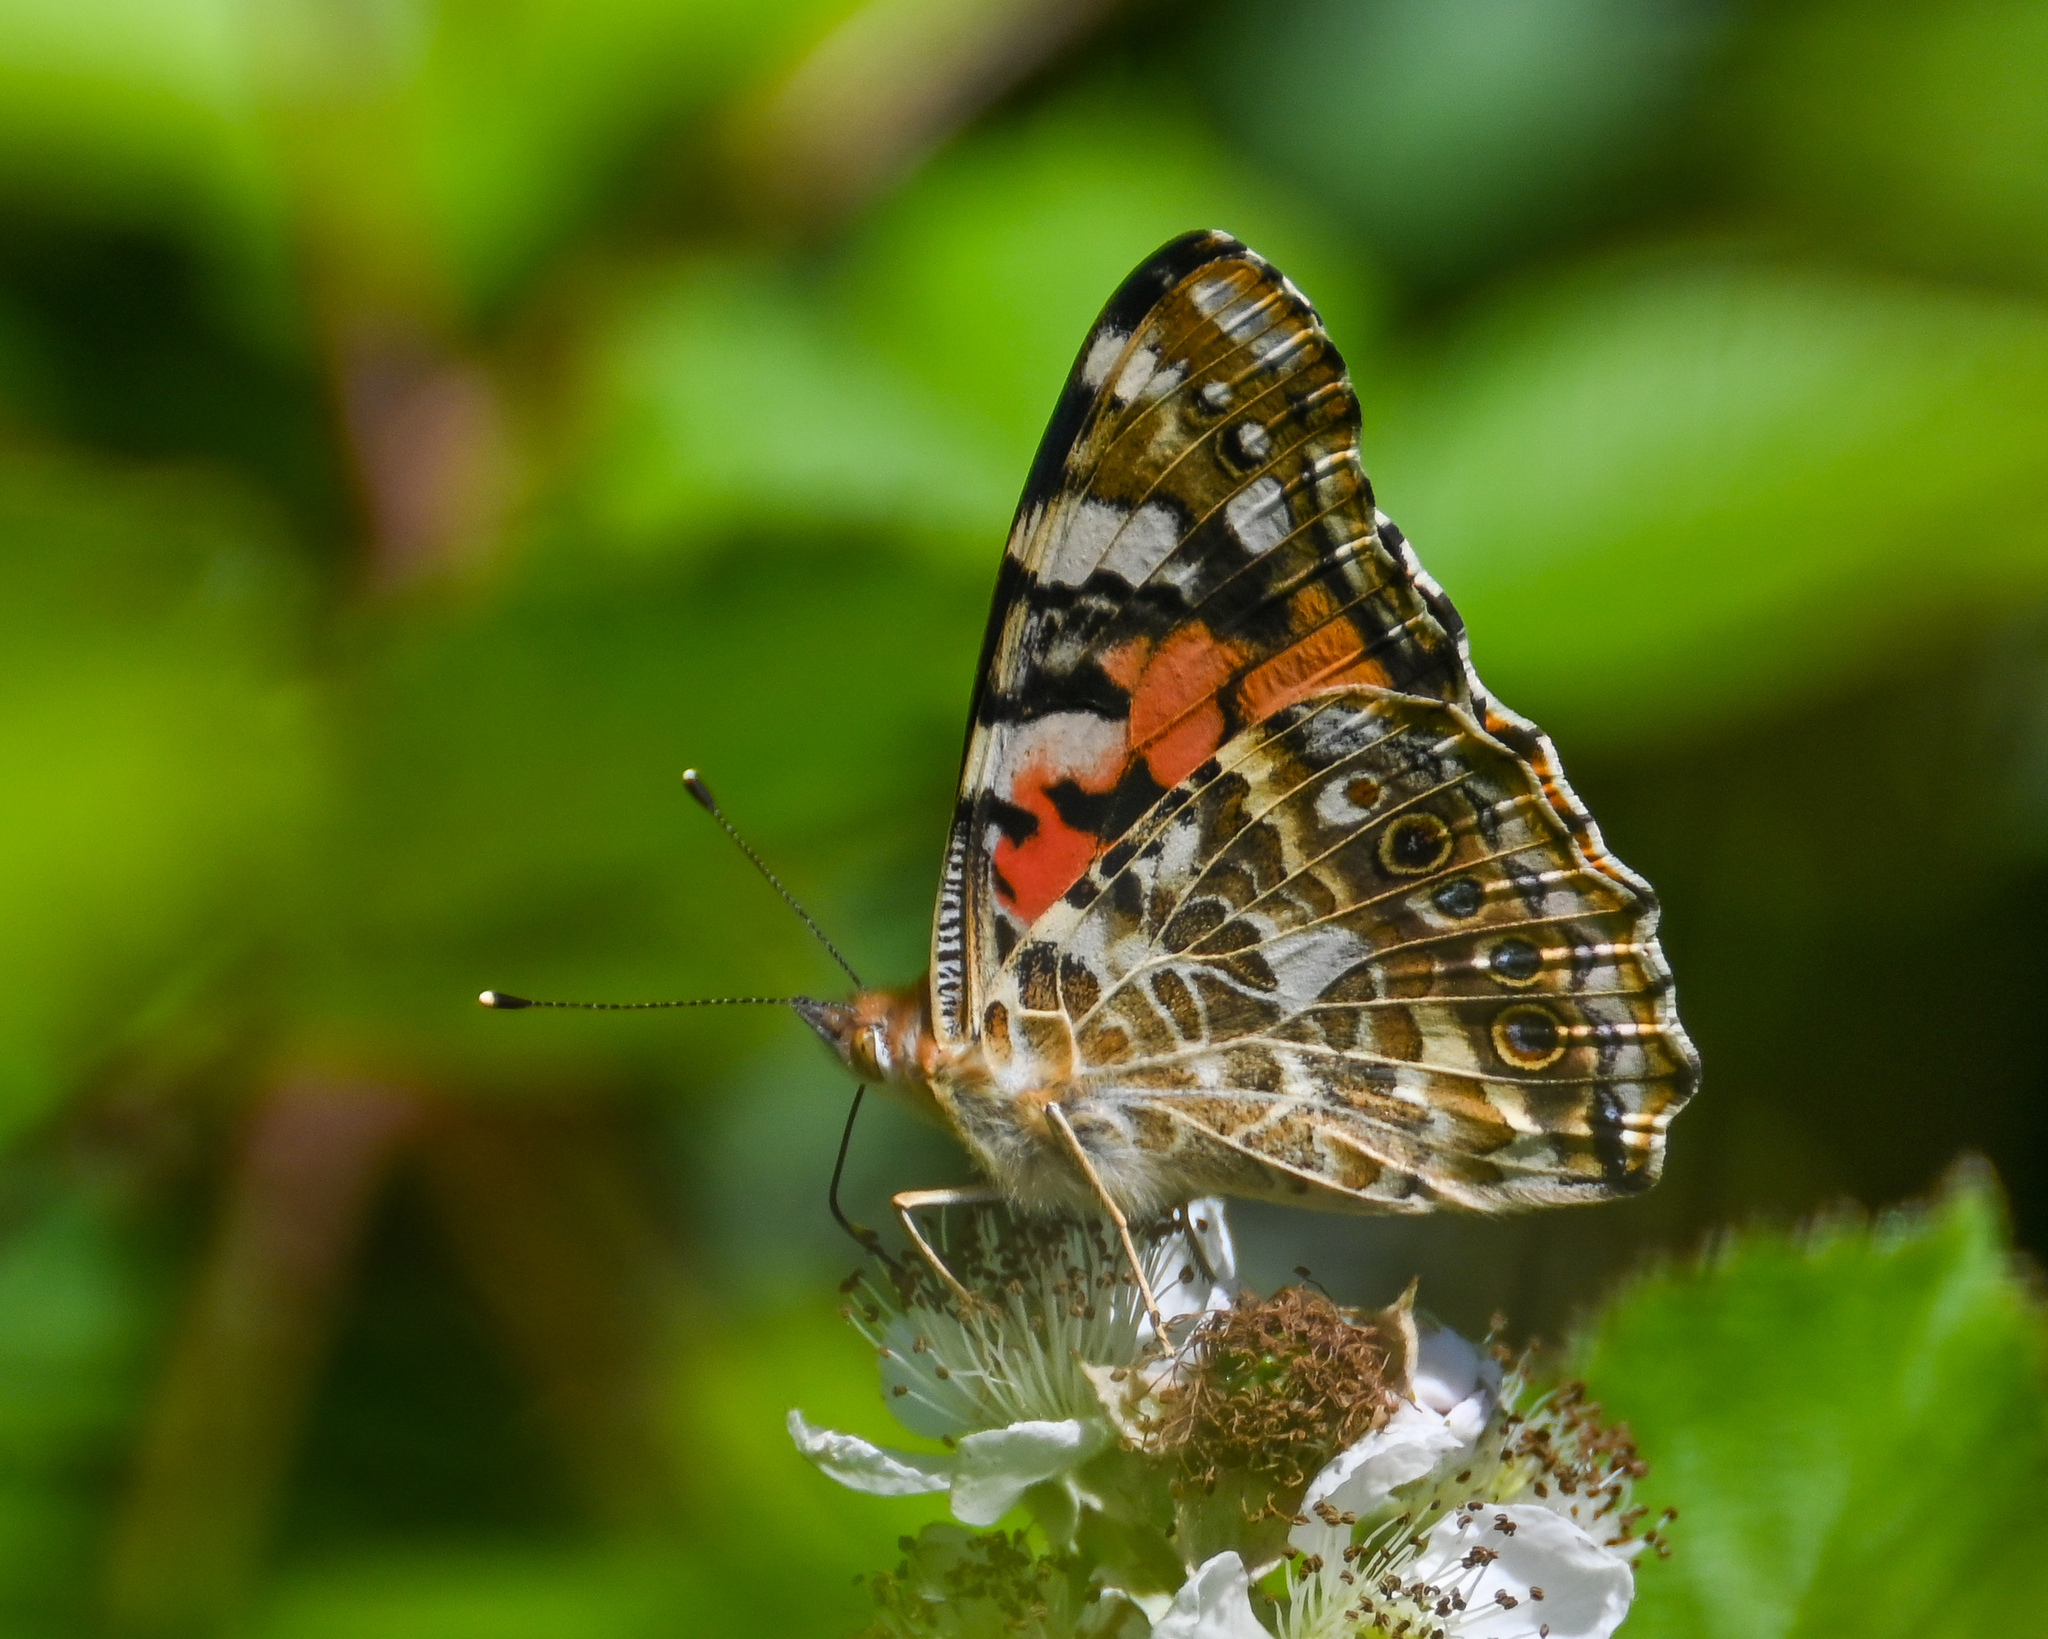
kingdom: Animalia
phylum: Arthropoda
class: Insecta
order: Lepidoptera
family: Nymphalidae
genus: Vanessa
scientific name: Vanessa cardui
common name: Painted lady
